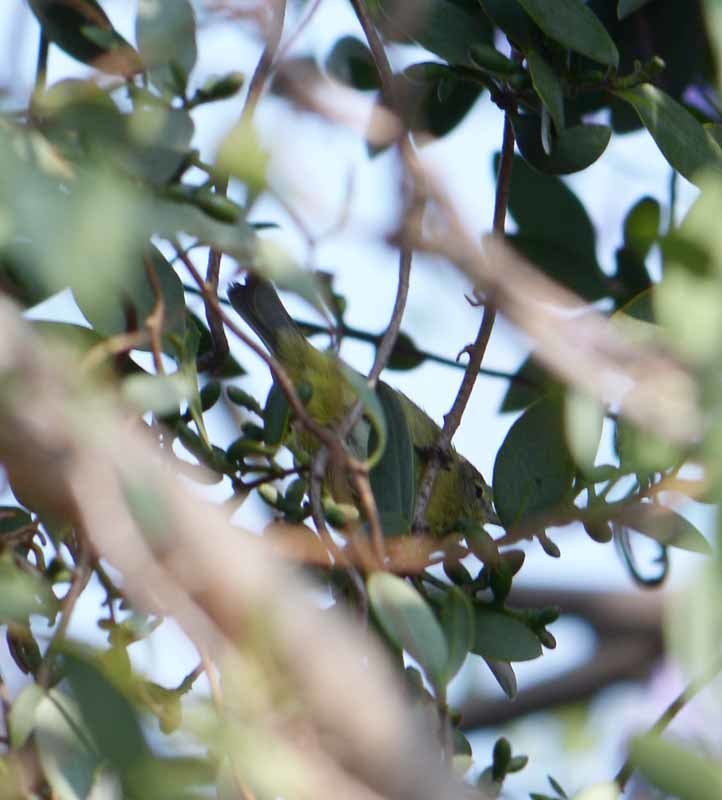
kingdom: Animalia
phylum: Chordata
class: Aves
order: Passeriformes
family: Parulidae
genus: Leiothlypis
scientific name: Leiothlypis celata
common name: Orange-crowned warbler
